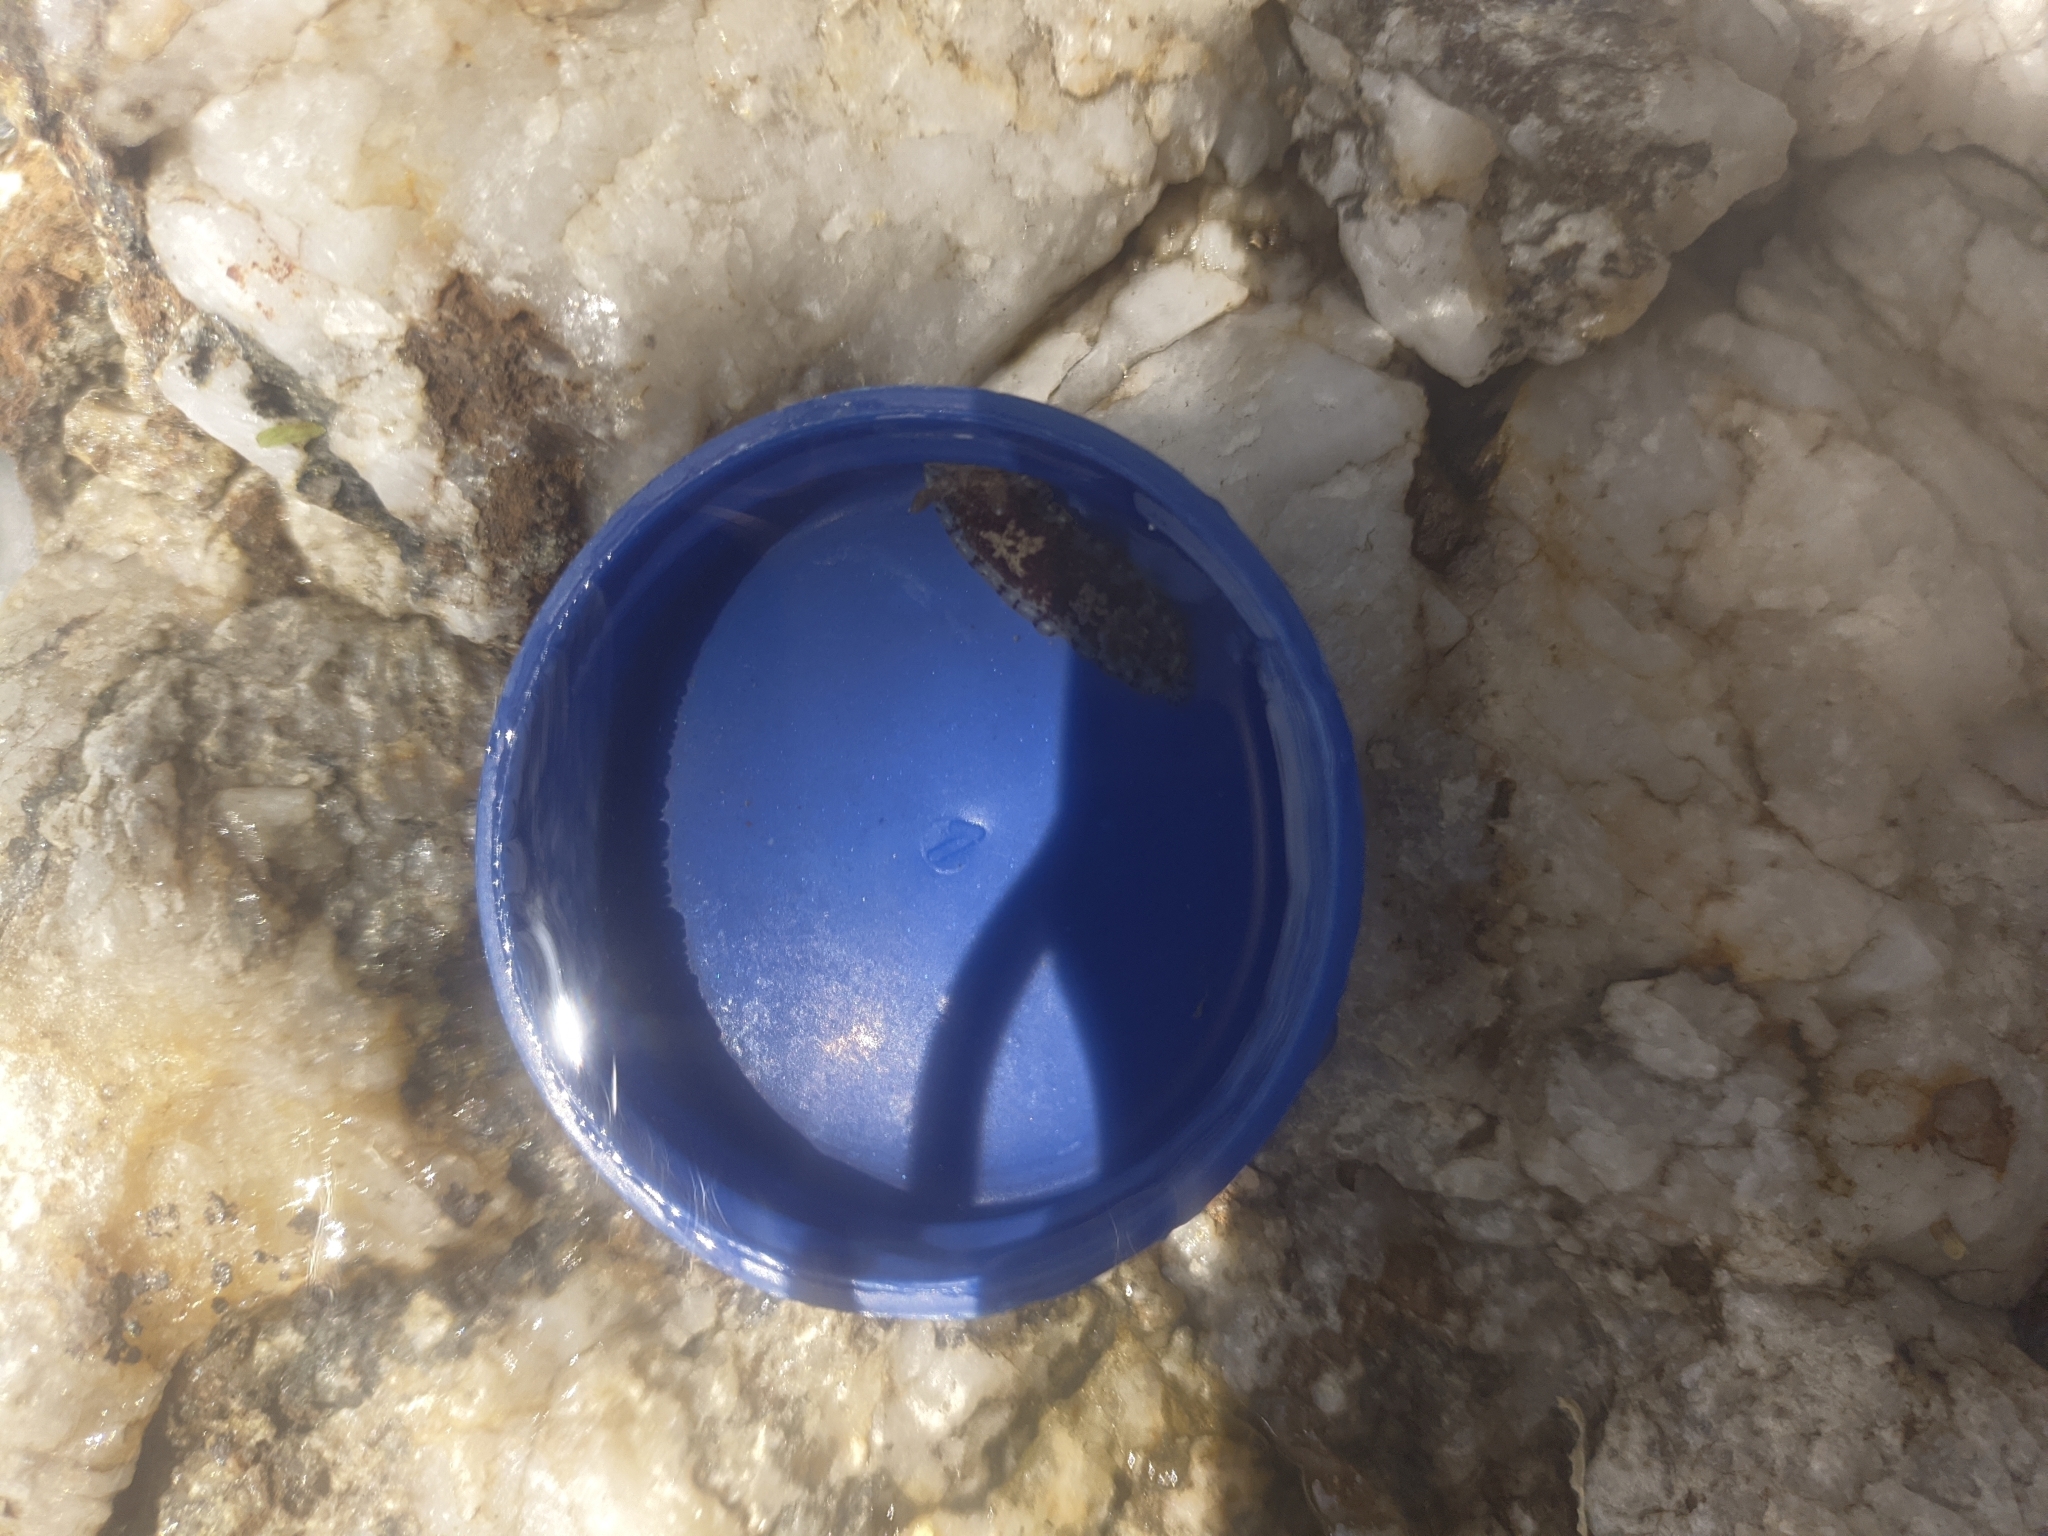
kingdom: Animalia
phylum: Mollusca
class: Gastropoda
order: Nudibranchia
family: Dorididae
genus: Aphelodoris
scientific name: Aphelodoris antillensis
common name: Brown-speckled doris
